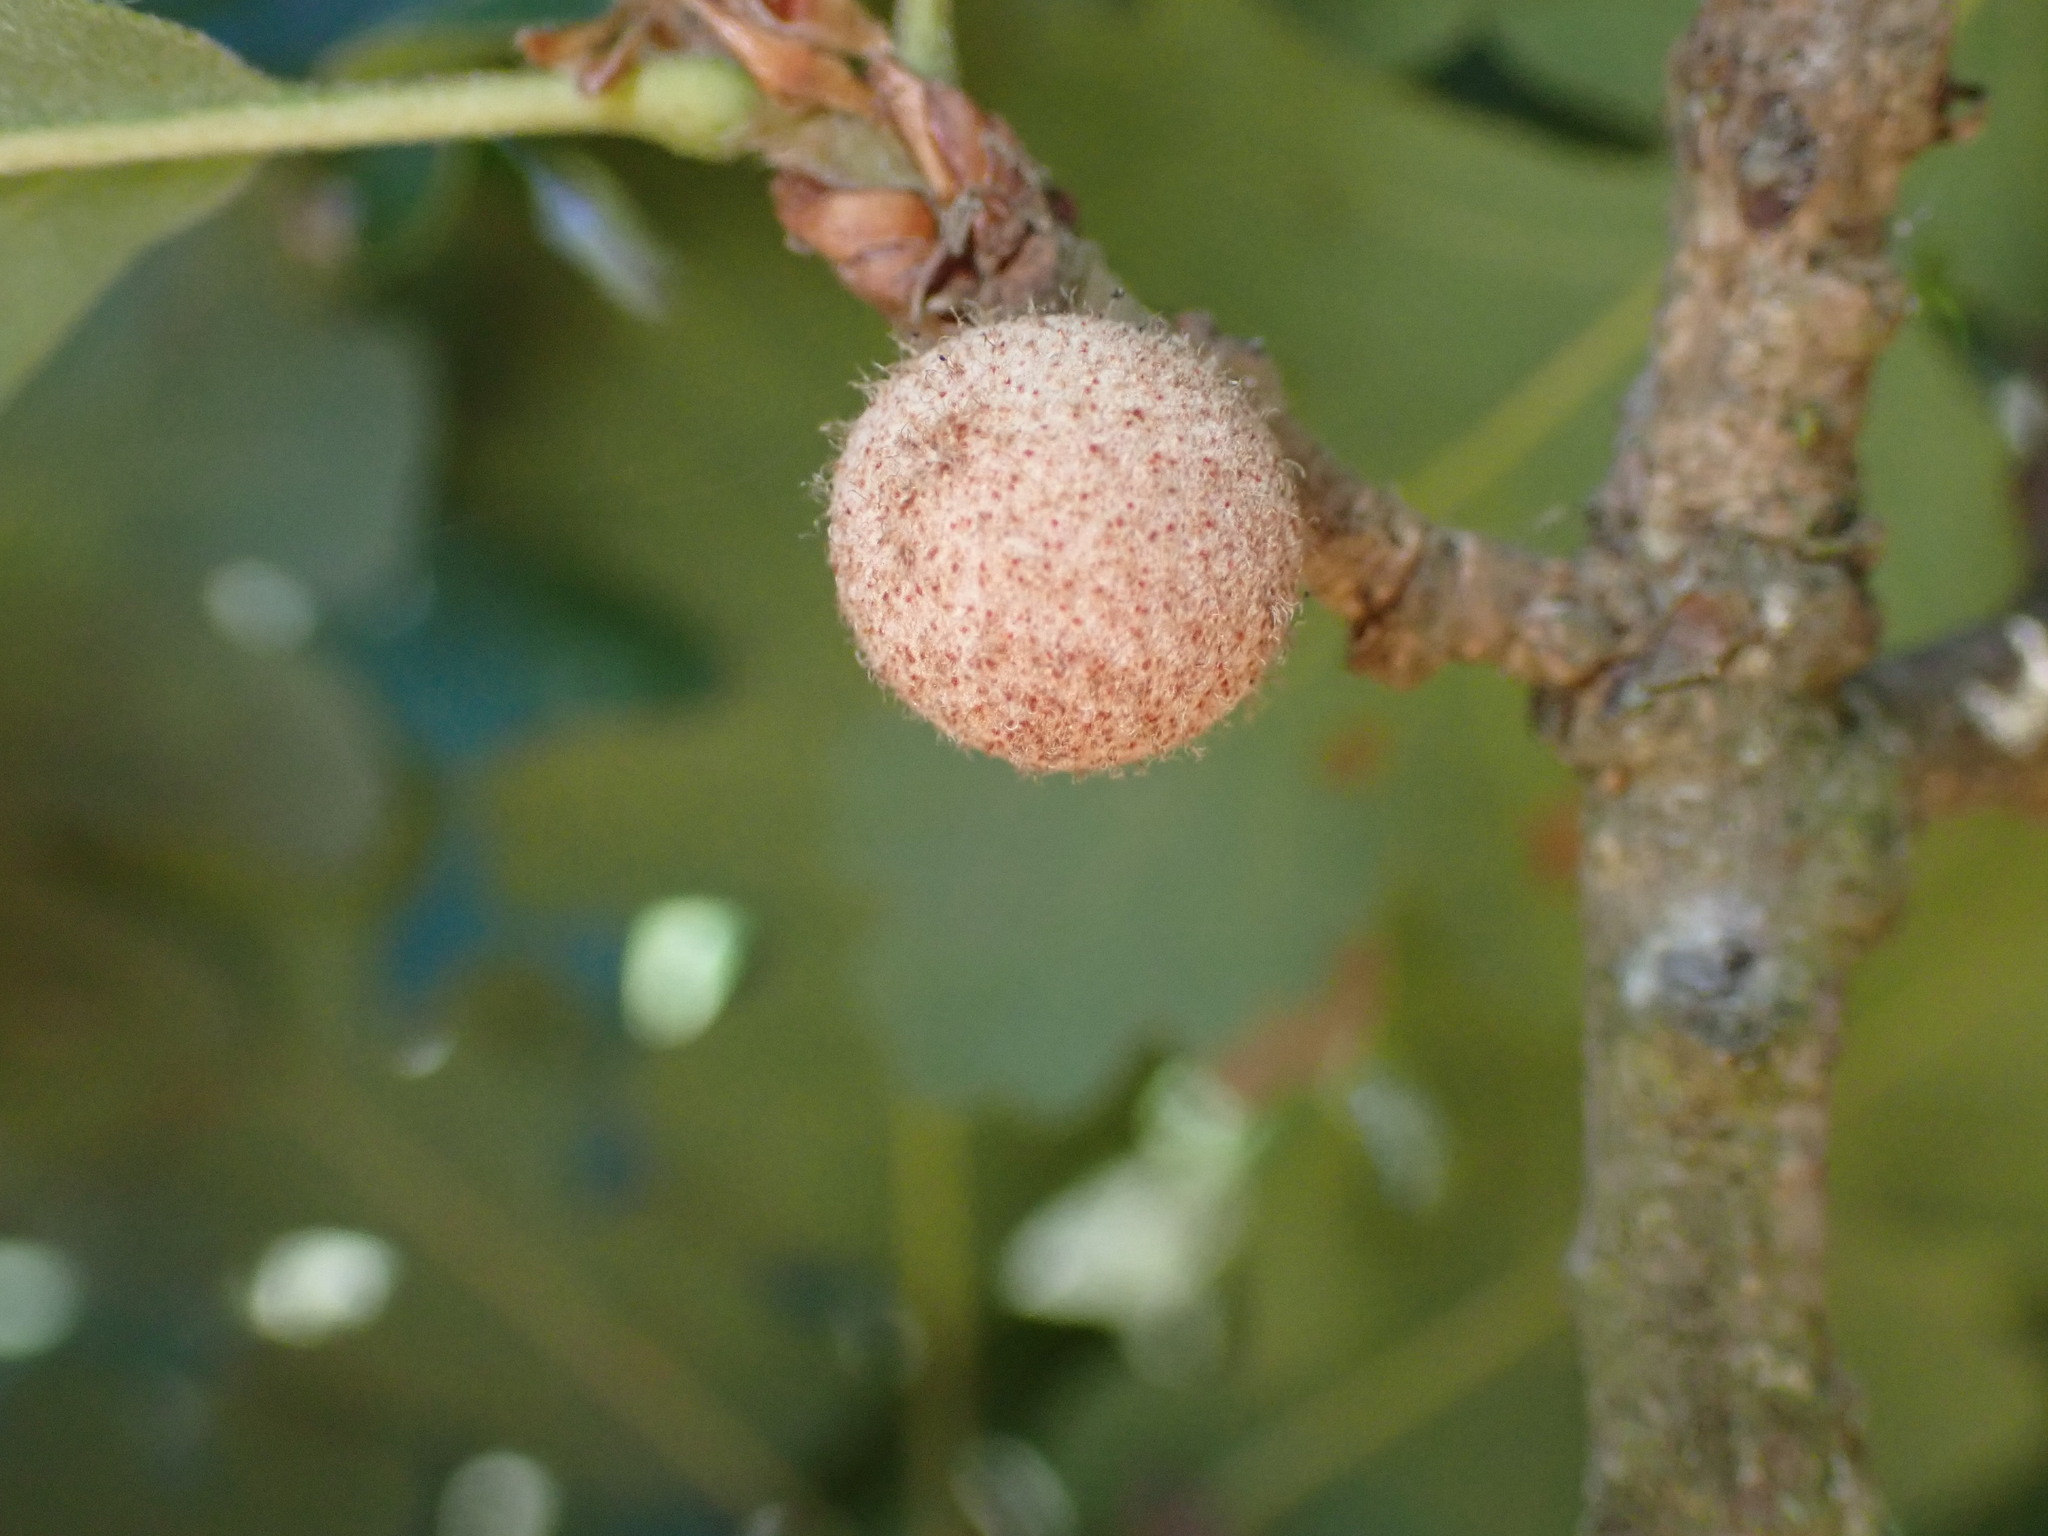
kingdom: Animalia
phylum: Arthropoda
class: Insecta
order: Hymenoptera
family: Cynipidae
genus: Burnettweldia
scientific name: Burnettweldia
